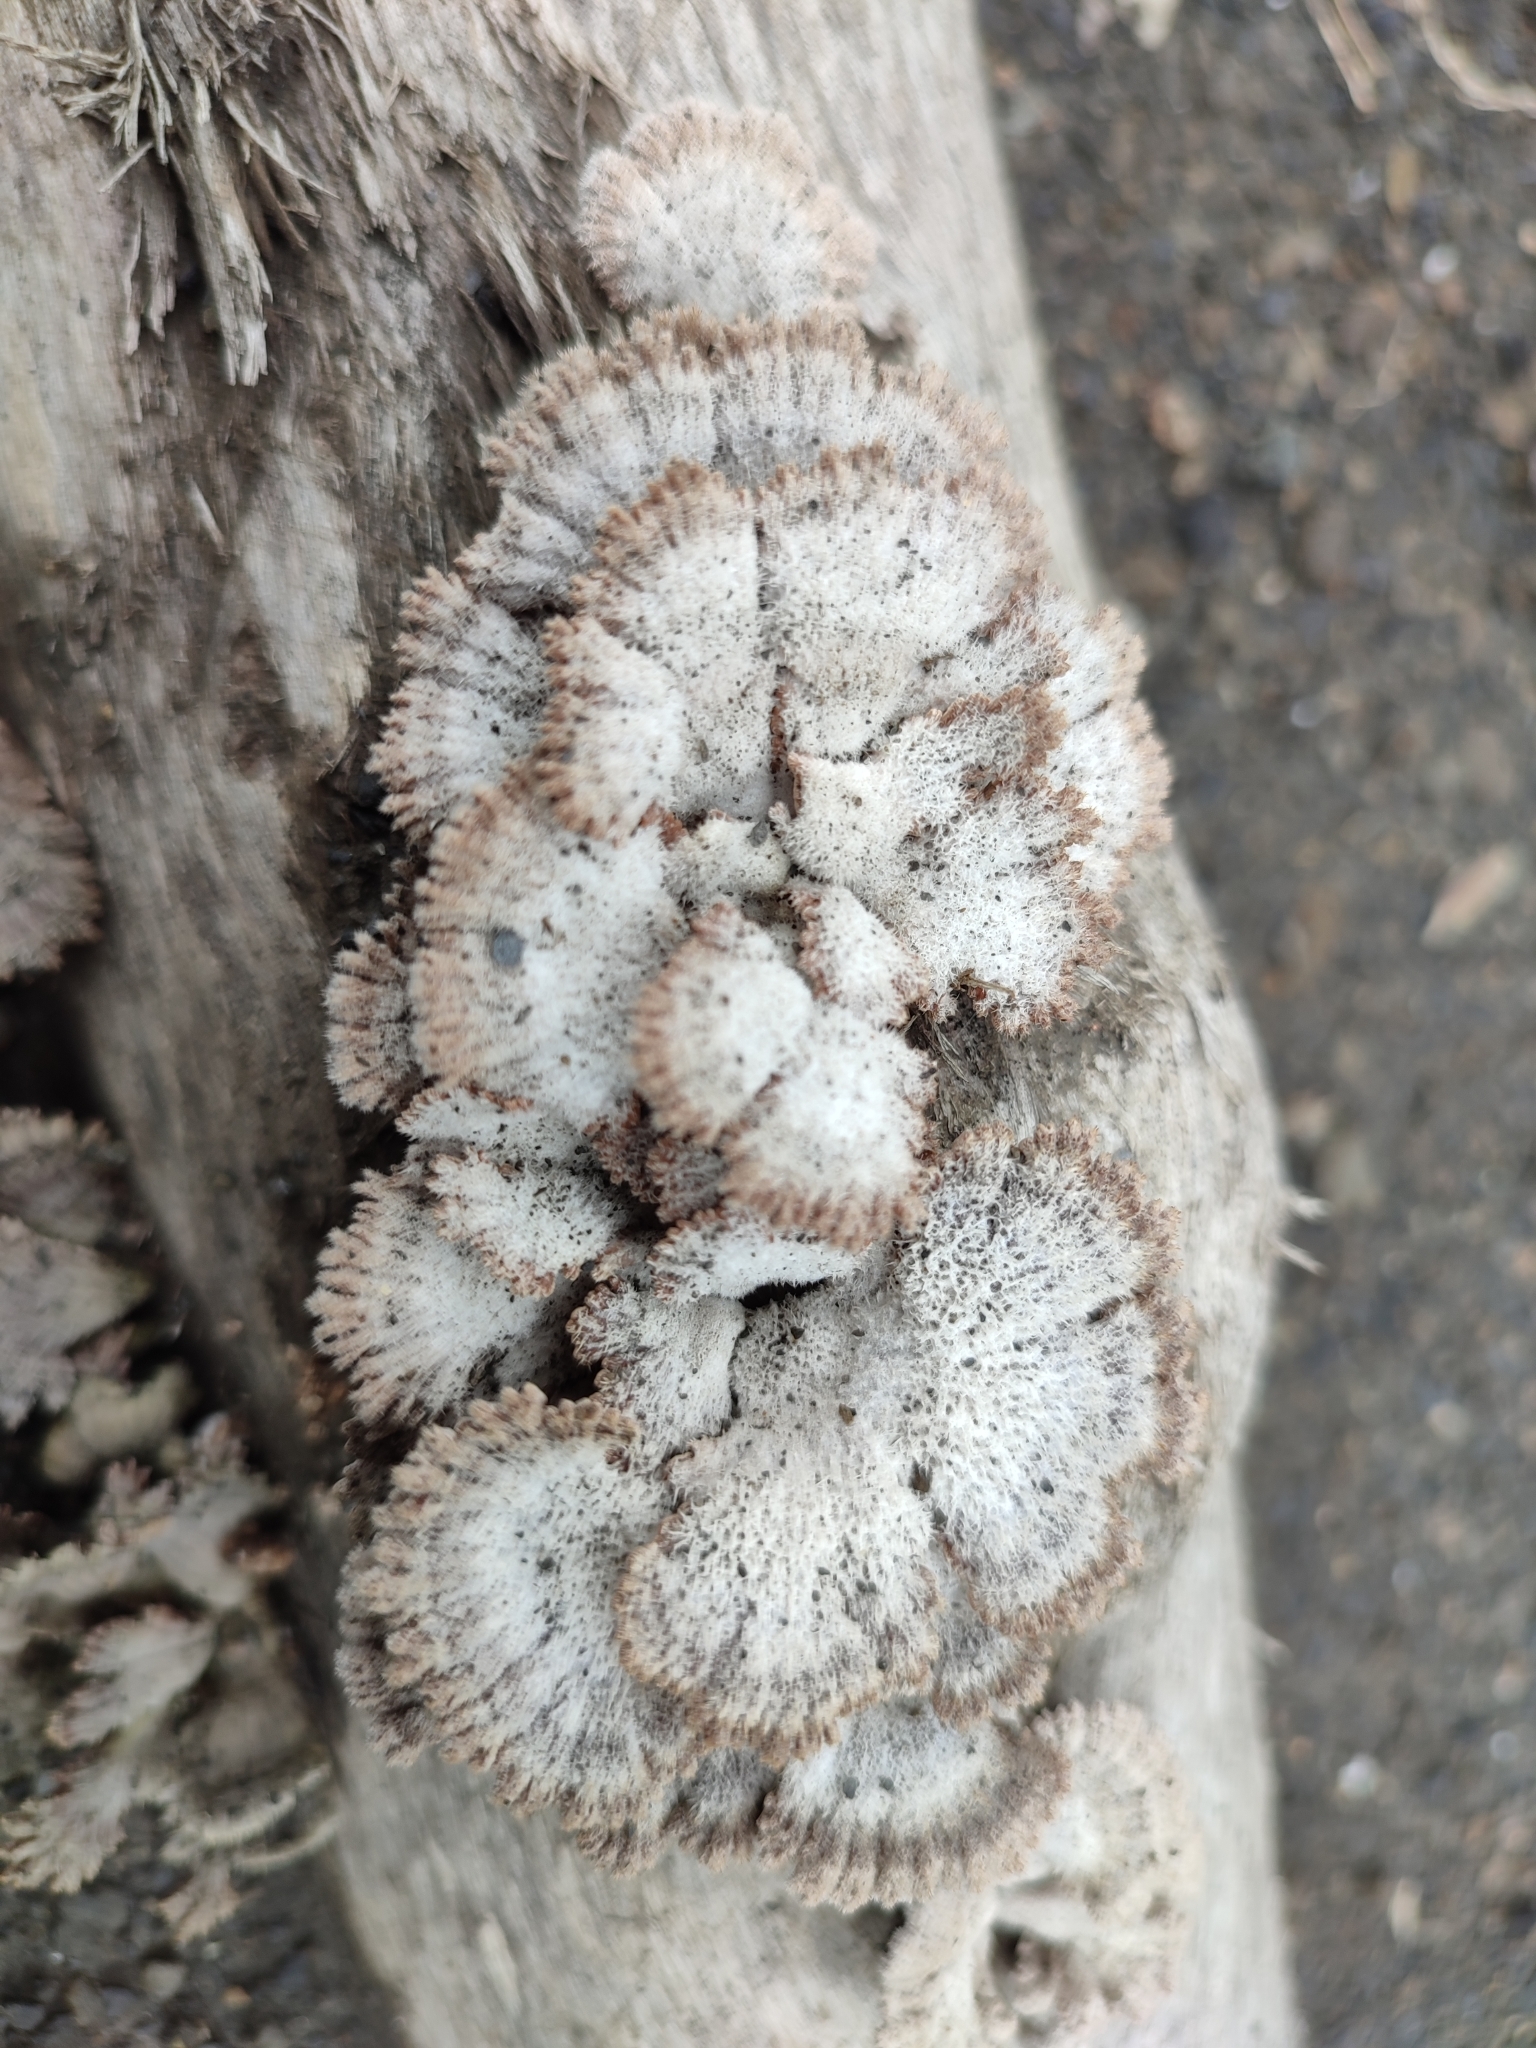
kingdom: Fungi
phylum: Basidiomycota
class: Agaricomycetes
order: Agaricales
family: Schizophyllaceae
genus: Schizophyllum
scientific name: Schizophyllum commune
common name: Common porecrust
